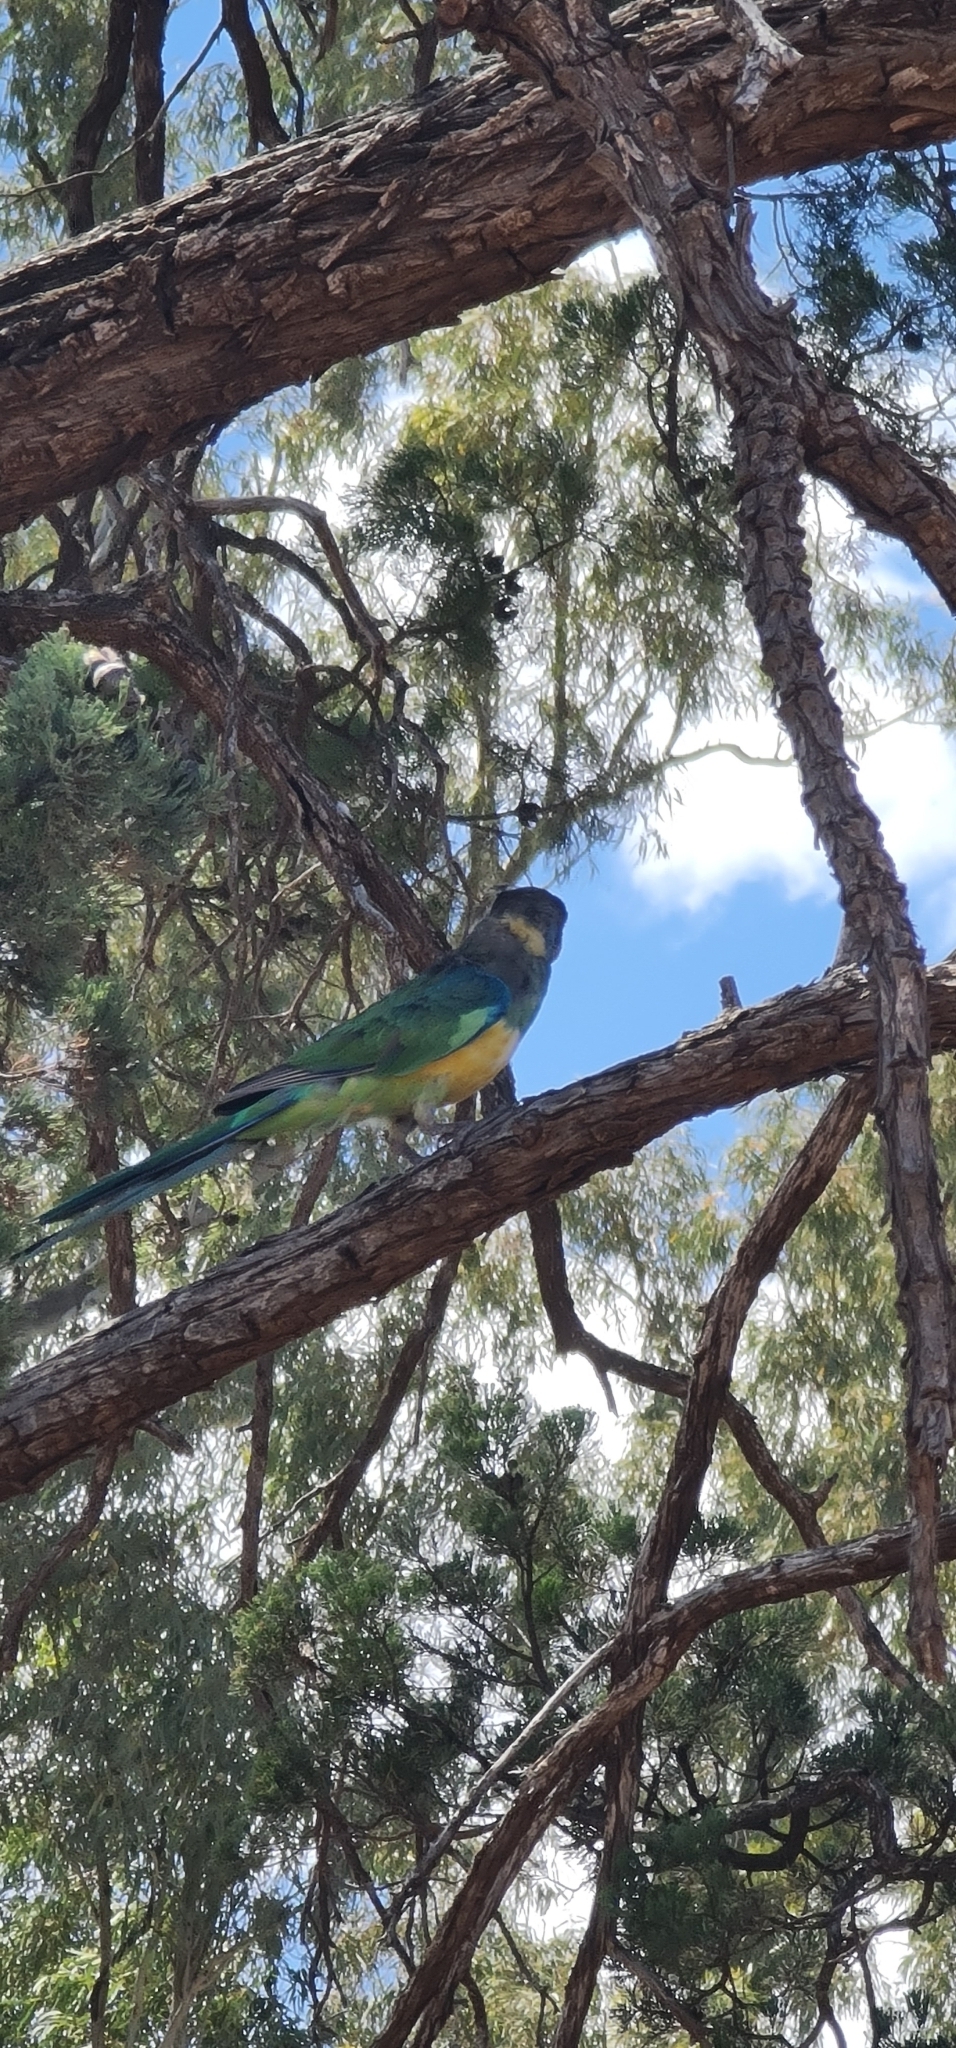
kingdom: Animalia
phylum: Chordata
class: Aves
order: Psittaciformes
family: Psittacidae
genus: Barnardius
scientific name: Barnardius zonarius
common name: Australian ringneck
